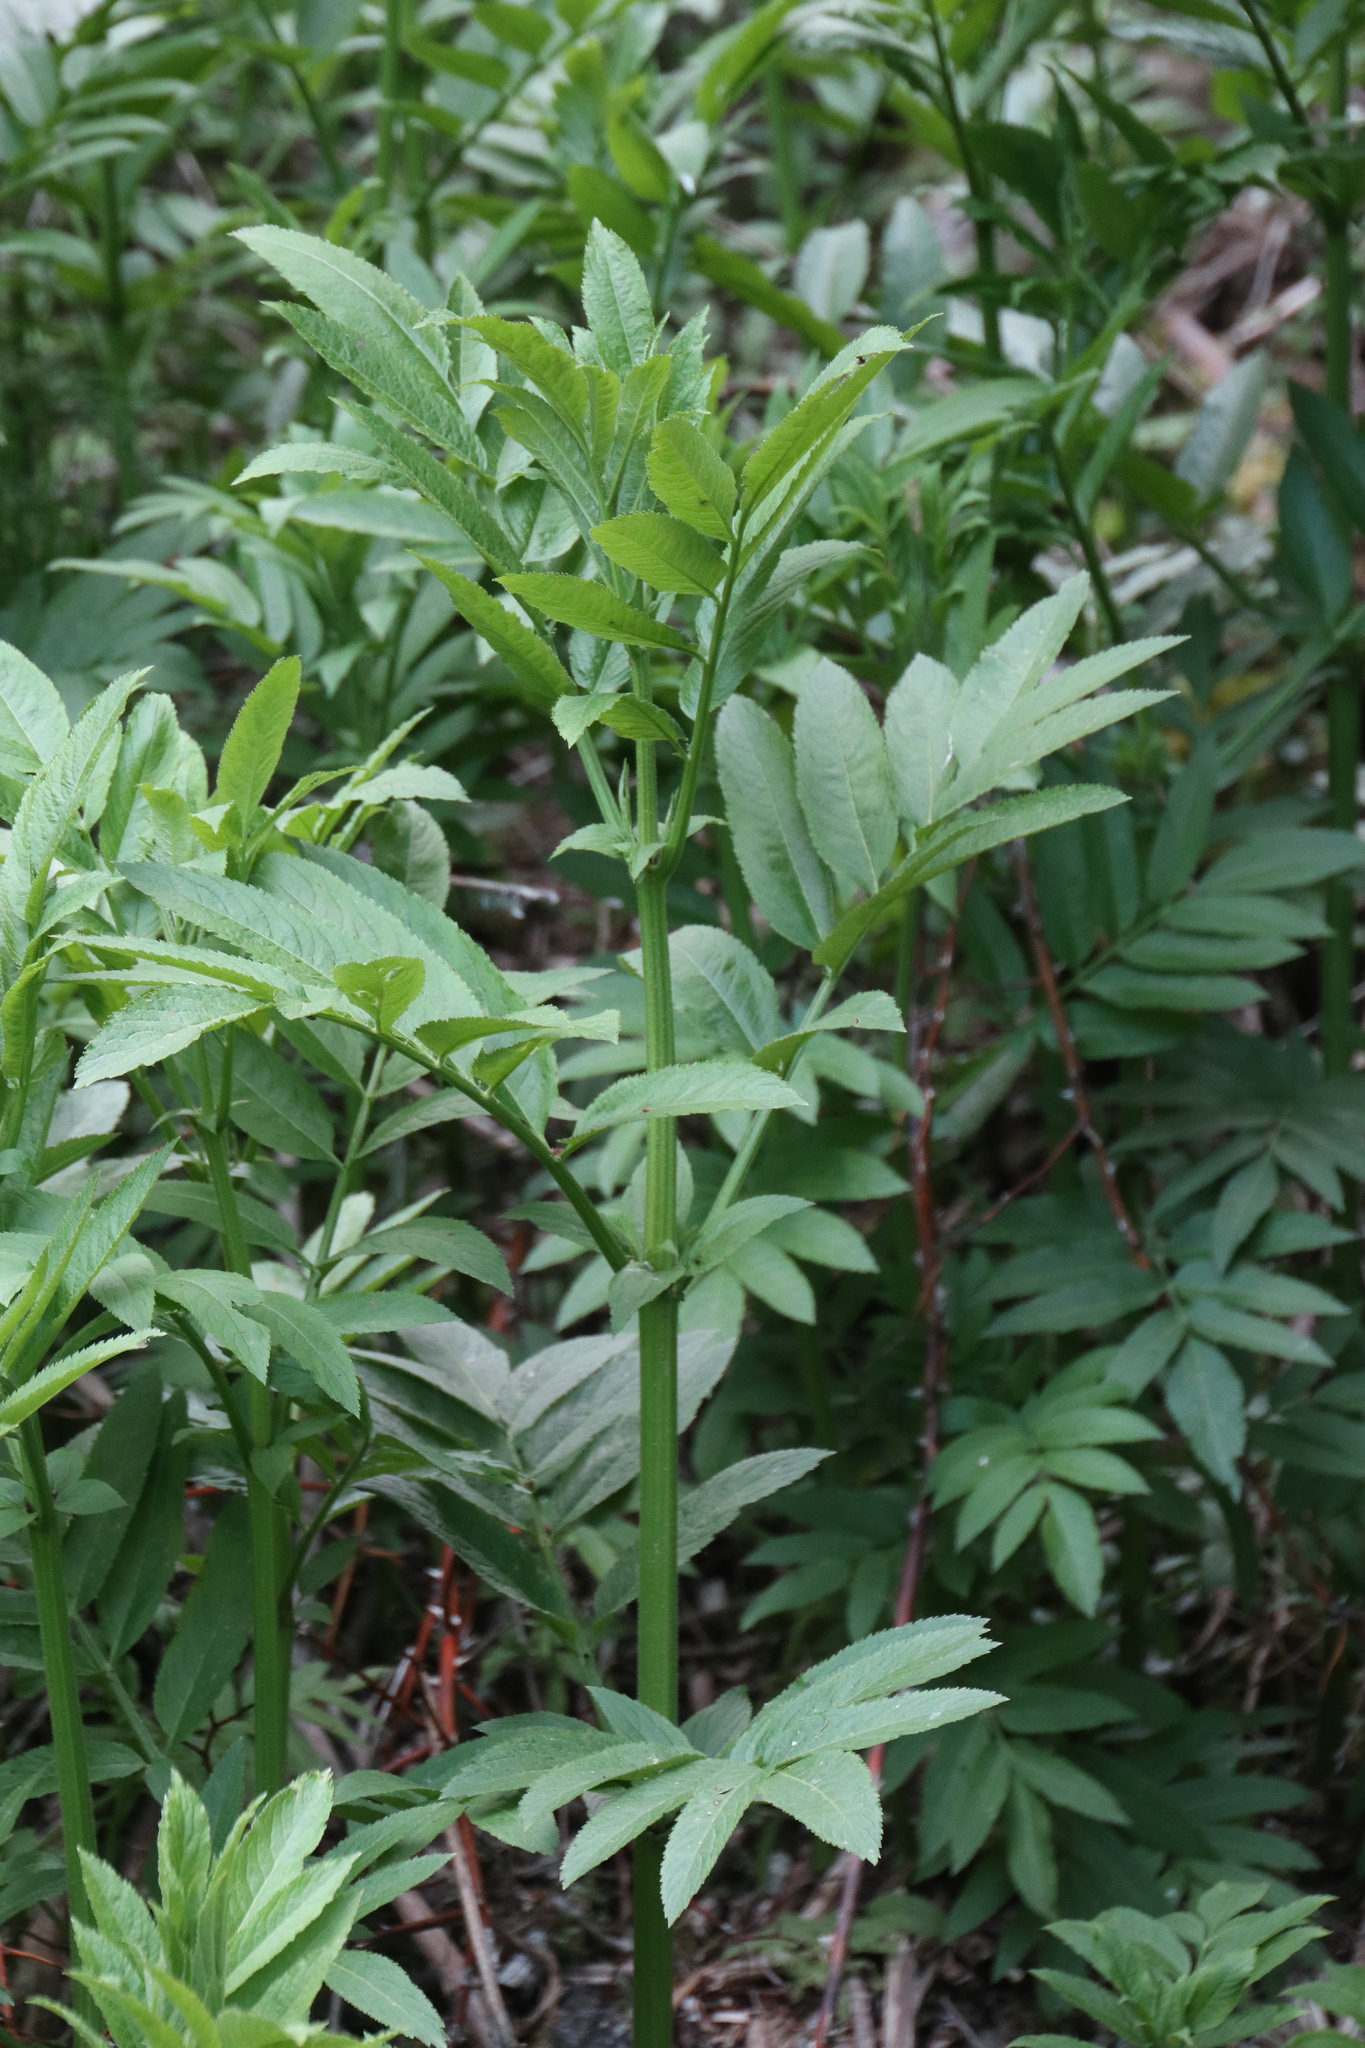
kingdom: Plantae
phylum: Tracheophyta
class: Magnoliopsida
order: Dipsacales
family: Viburnaceae
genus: Sambucus
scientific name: Sambucus ebulus
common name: Dwarf elder
